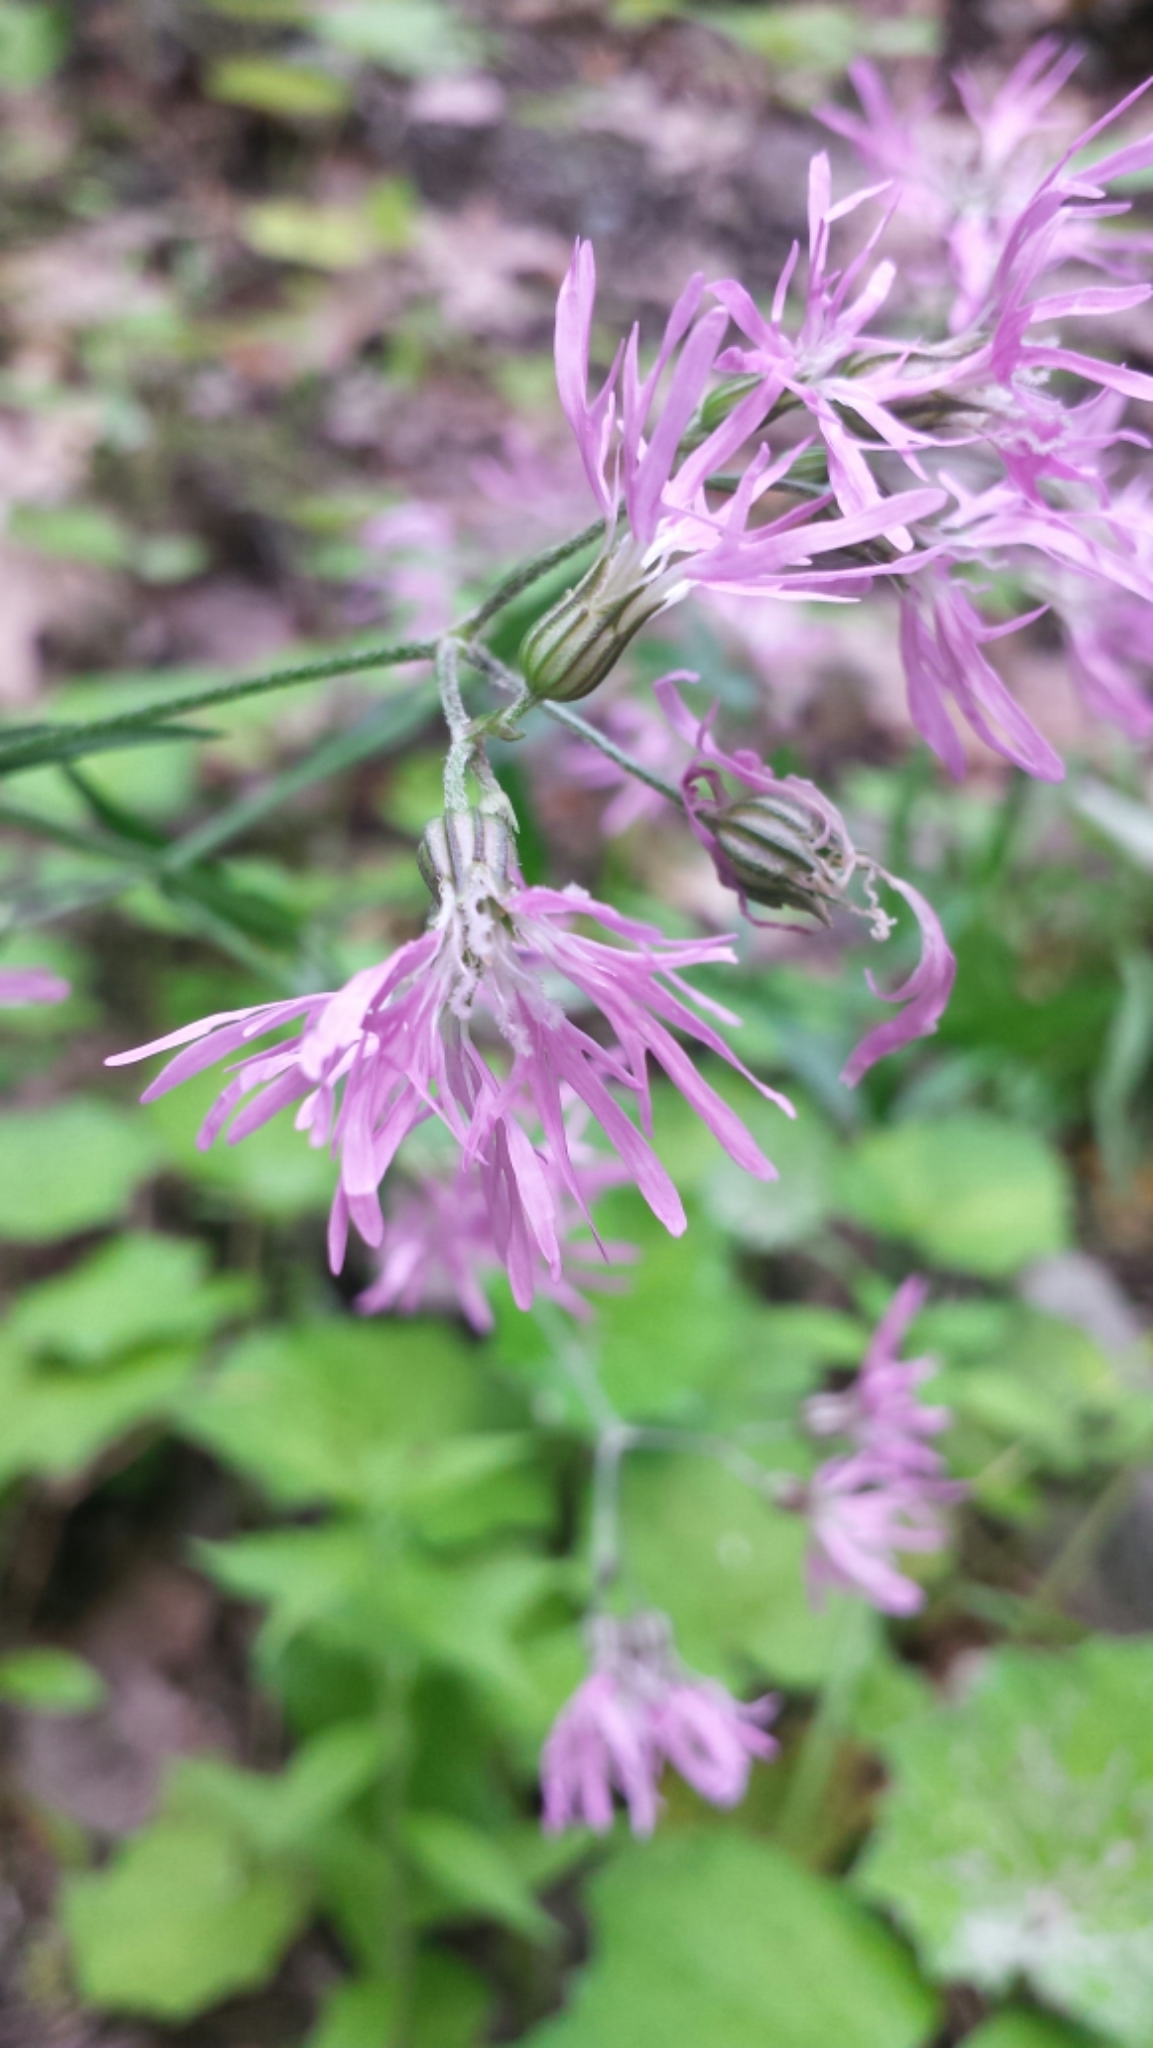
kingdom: Plantae
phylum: Tracheophyta
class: Magnoliopsida
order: Caryophyllales
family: Caryophyllaceae
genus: Silene
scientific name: Silene flos-cuculi
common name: Ragged-robin
